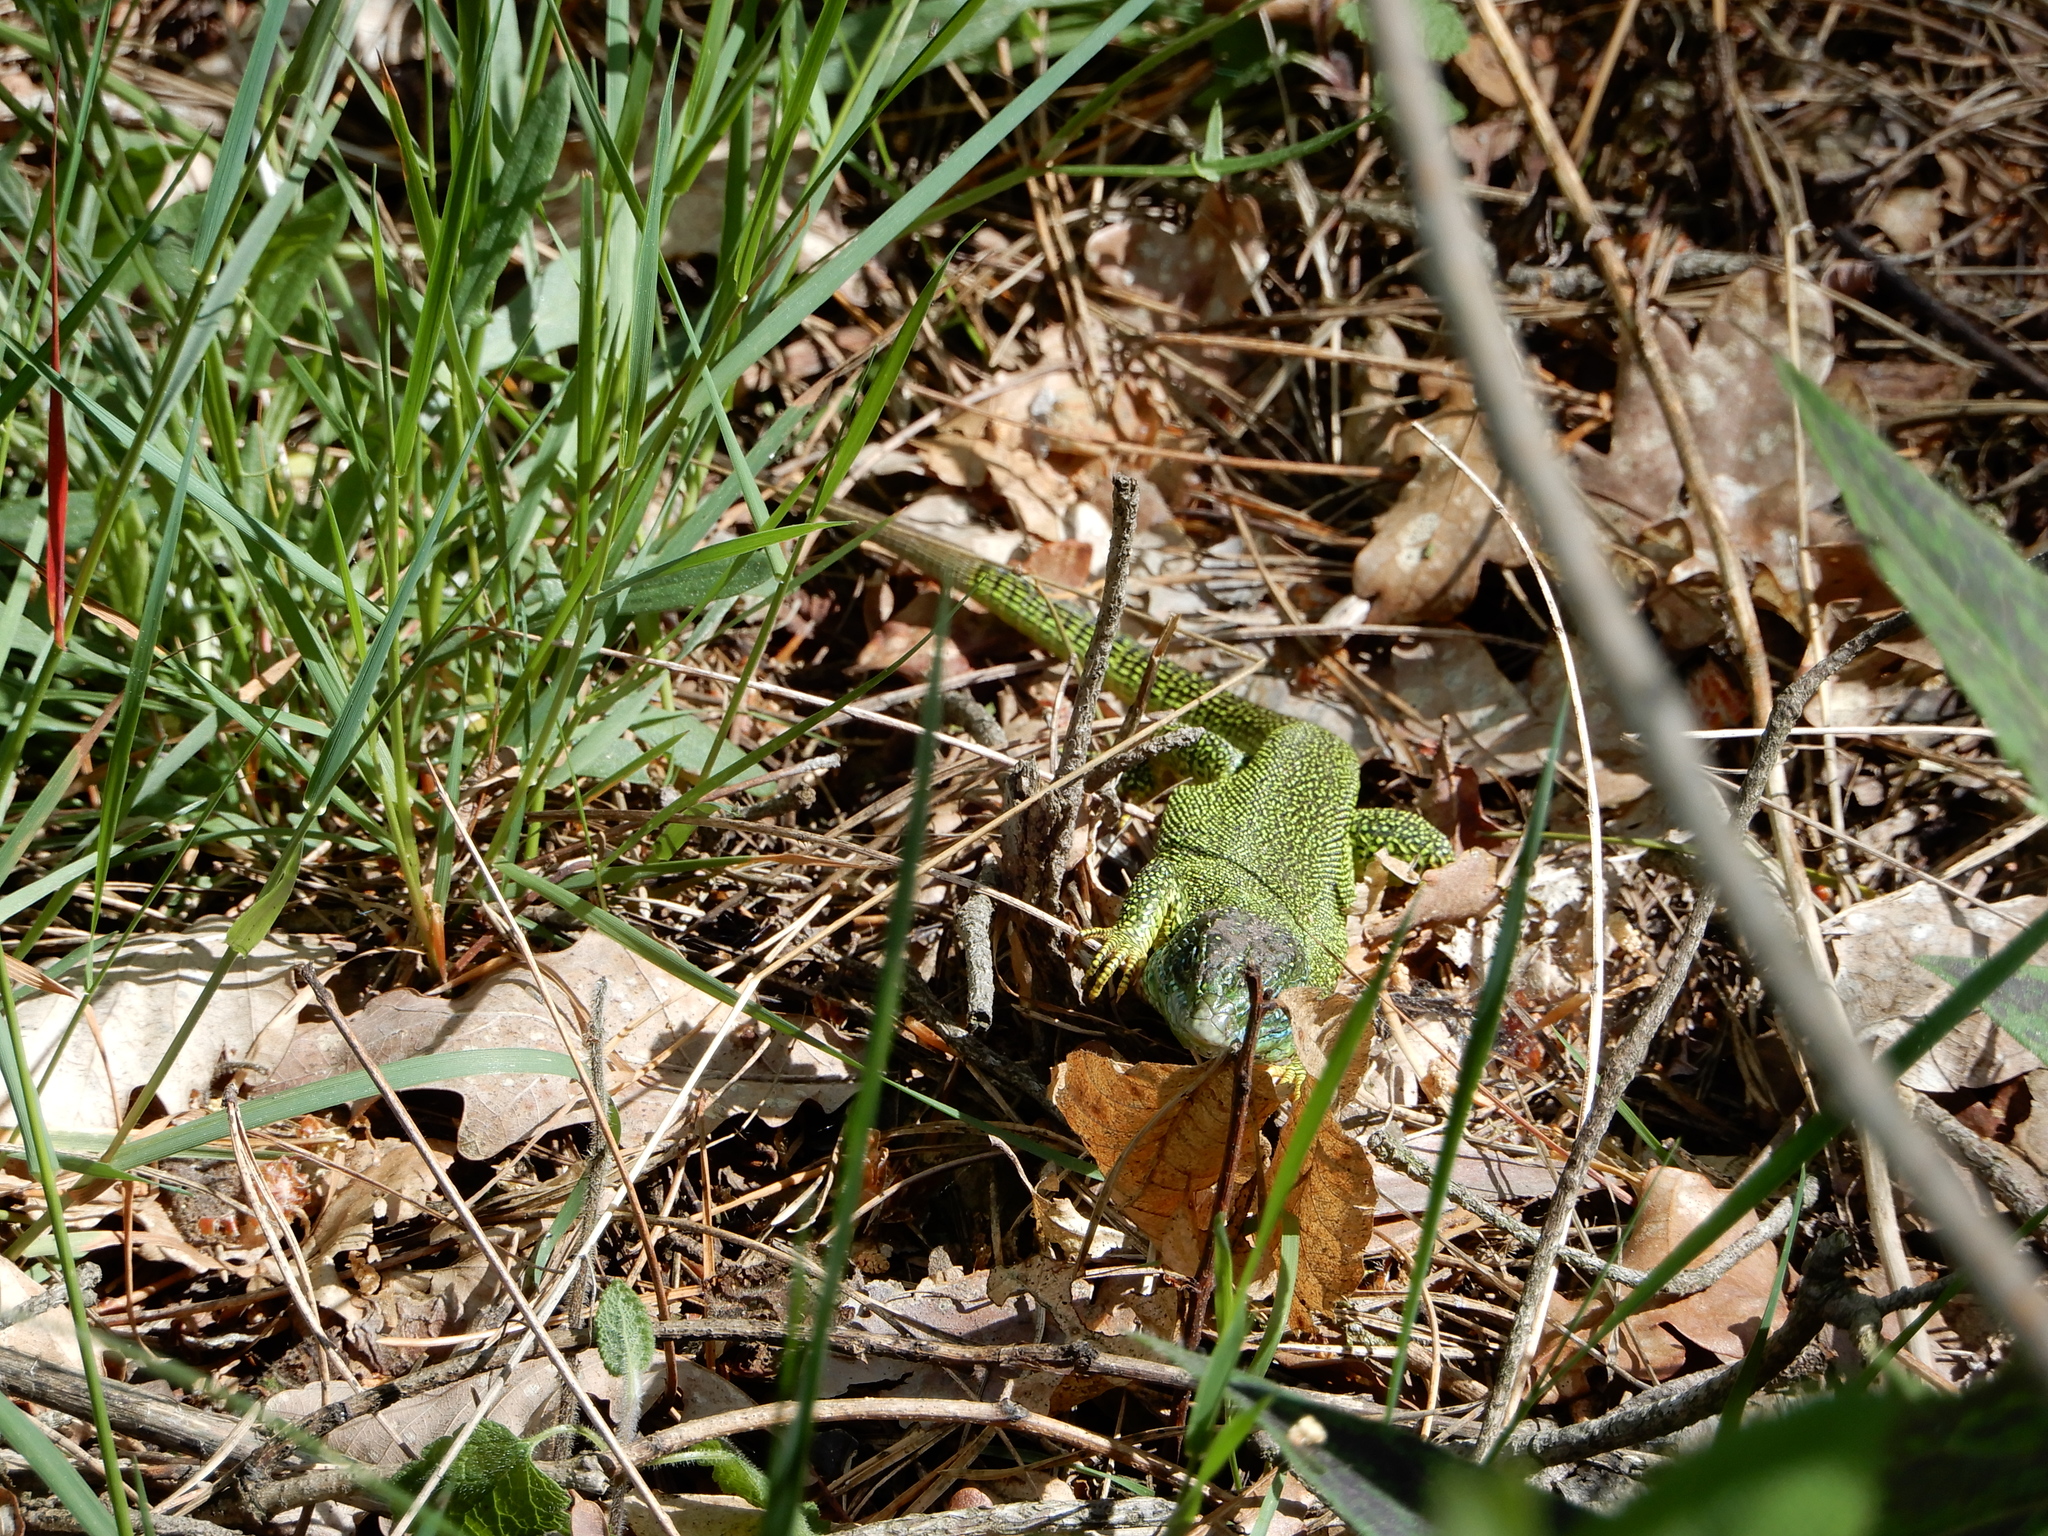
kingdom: Animalia
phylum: Chordata
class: Squamata
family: Lacertidae
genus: Lacerta
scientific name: Lacerta bilineata
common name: Western green lizard
